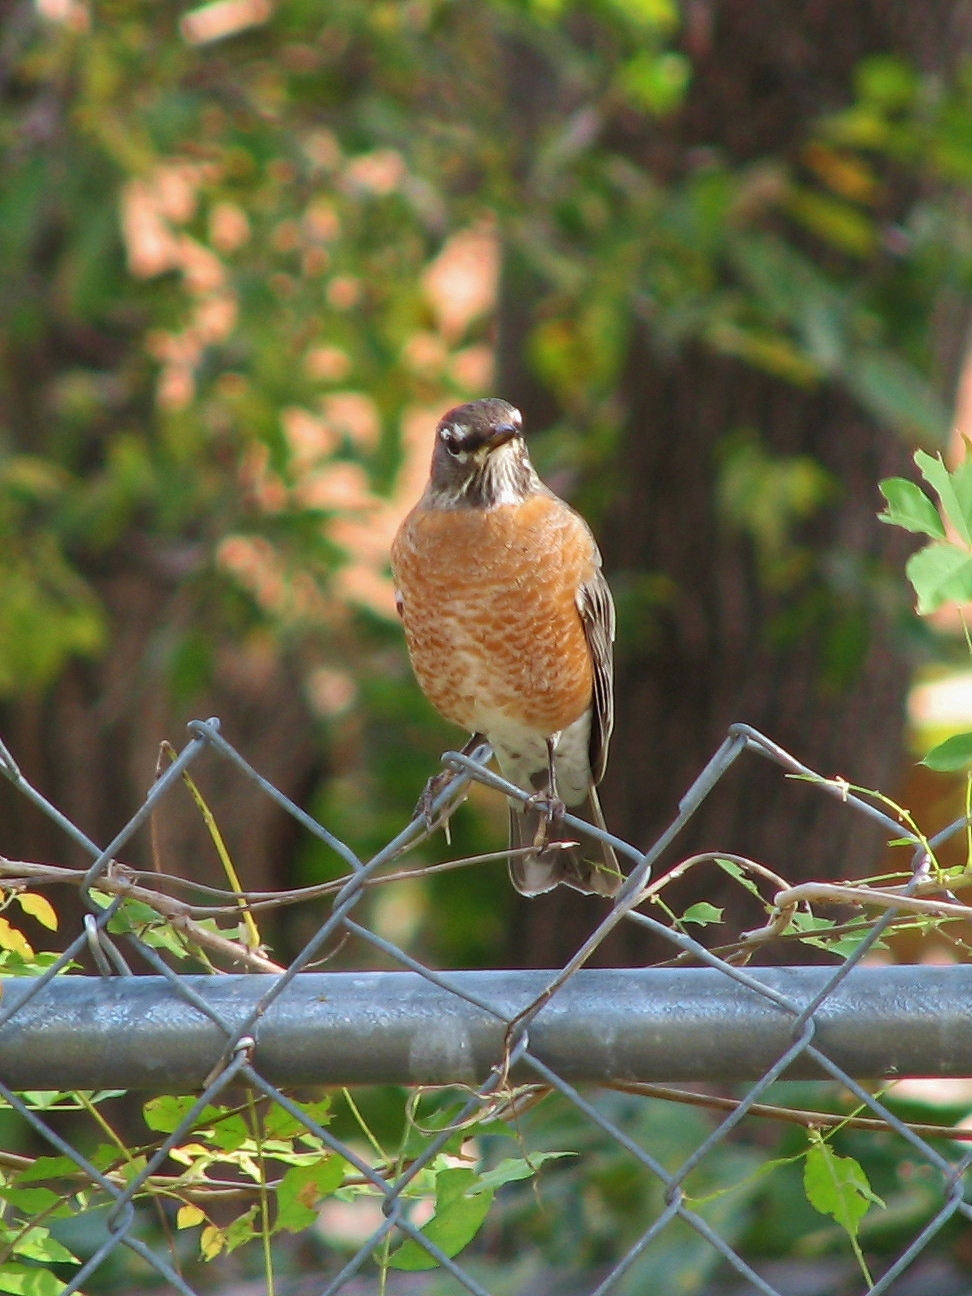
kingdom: Animalia
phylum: Chordata
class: Aves
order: Passeriformes
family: Turdidae
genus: Turdus
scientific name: Turdus migratorius
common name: American robin
